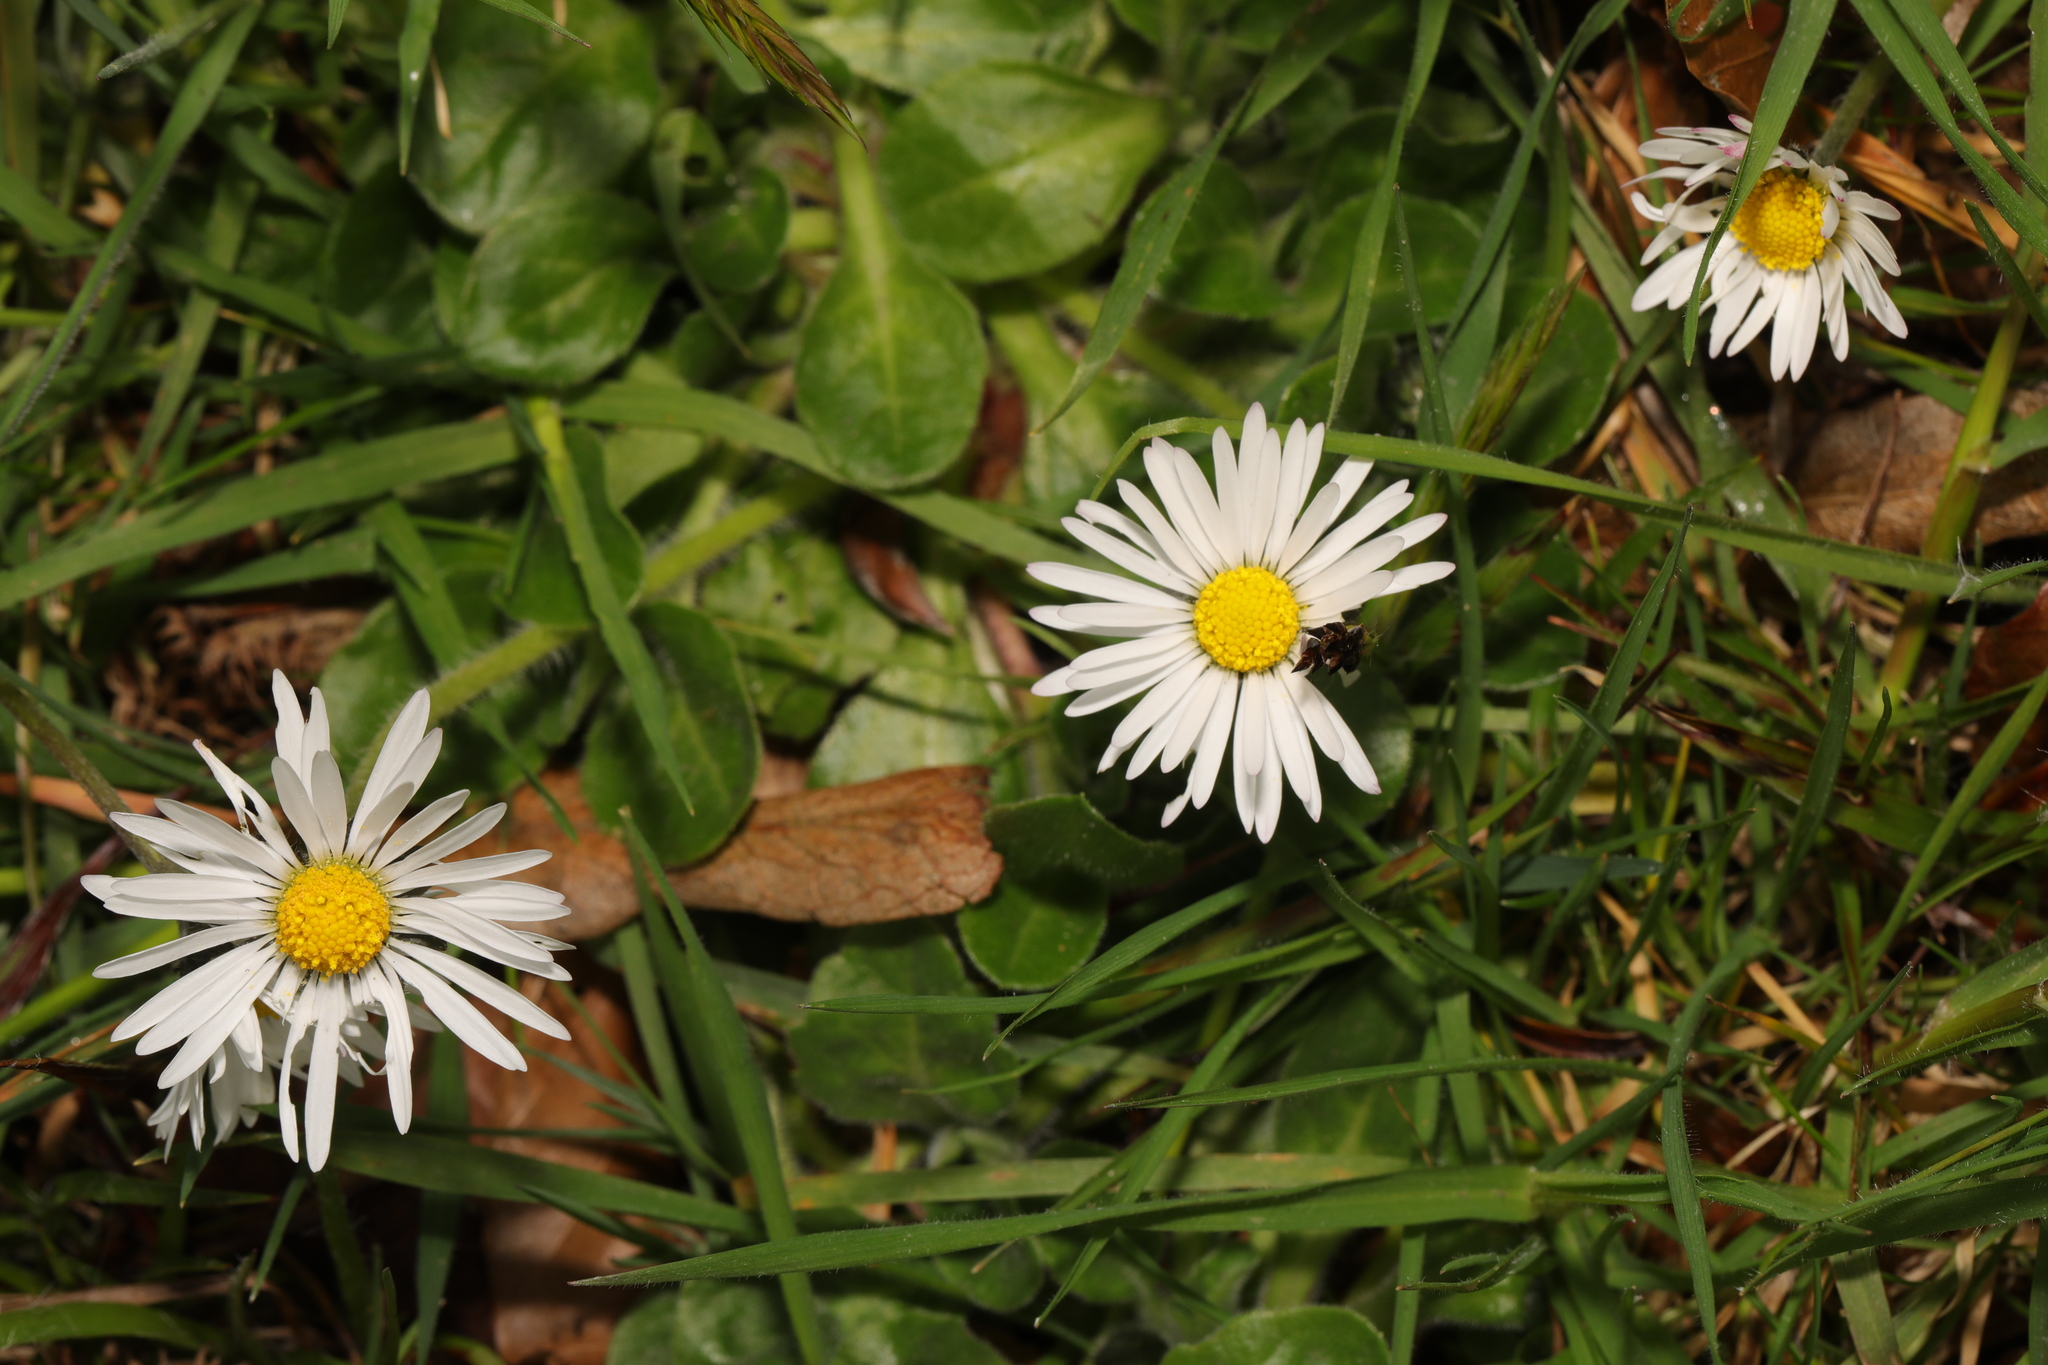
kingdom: Plantae
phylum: Tracheophyta
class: Magnoliopsida
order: Asterales
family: Asteraceae
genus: Bellis
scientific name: Bellis perennis
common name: Lawndaisy
